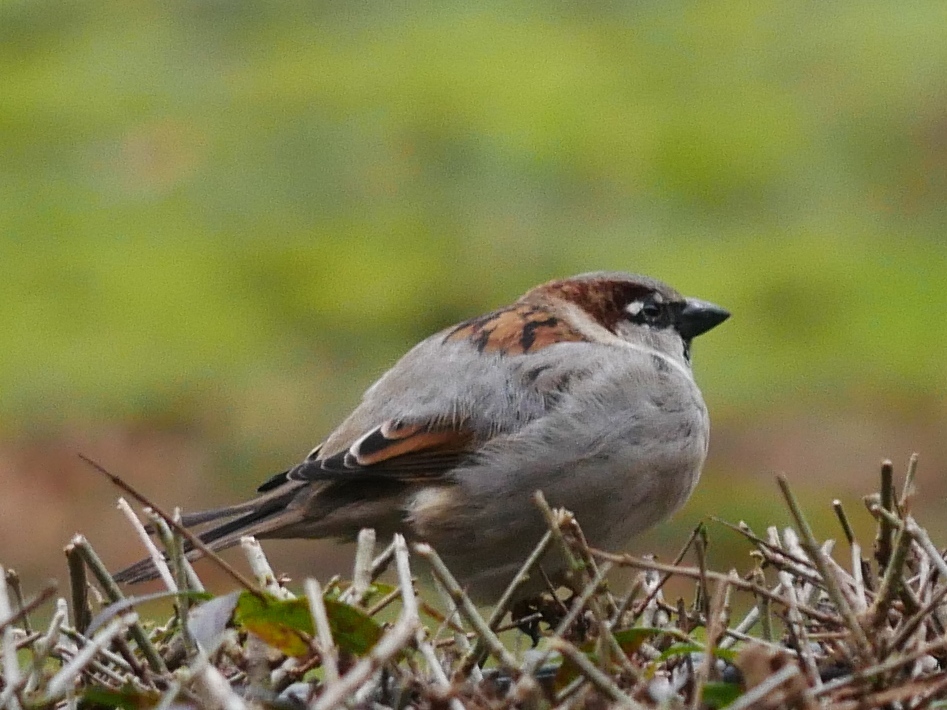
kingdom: Animalia
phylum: Chordata
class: Aves
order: Passeriformes
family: Passeridae
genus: Passer
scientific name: Passer domesticus
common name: House sparrow
